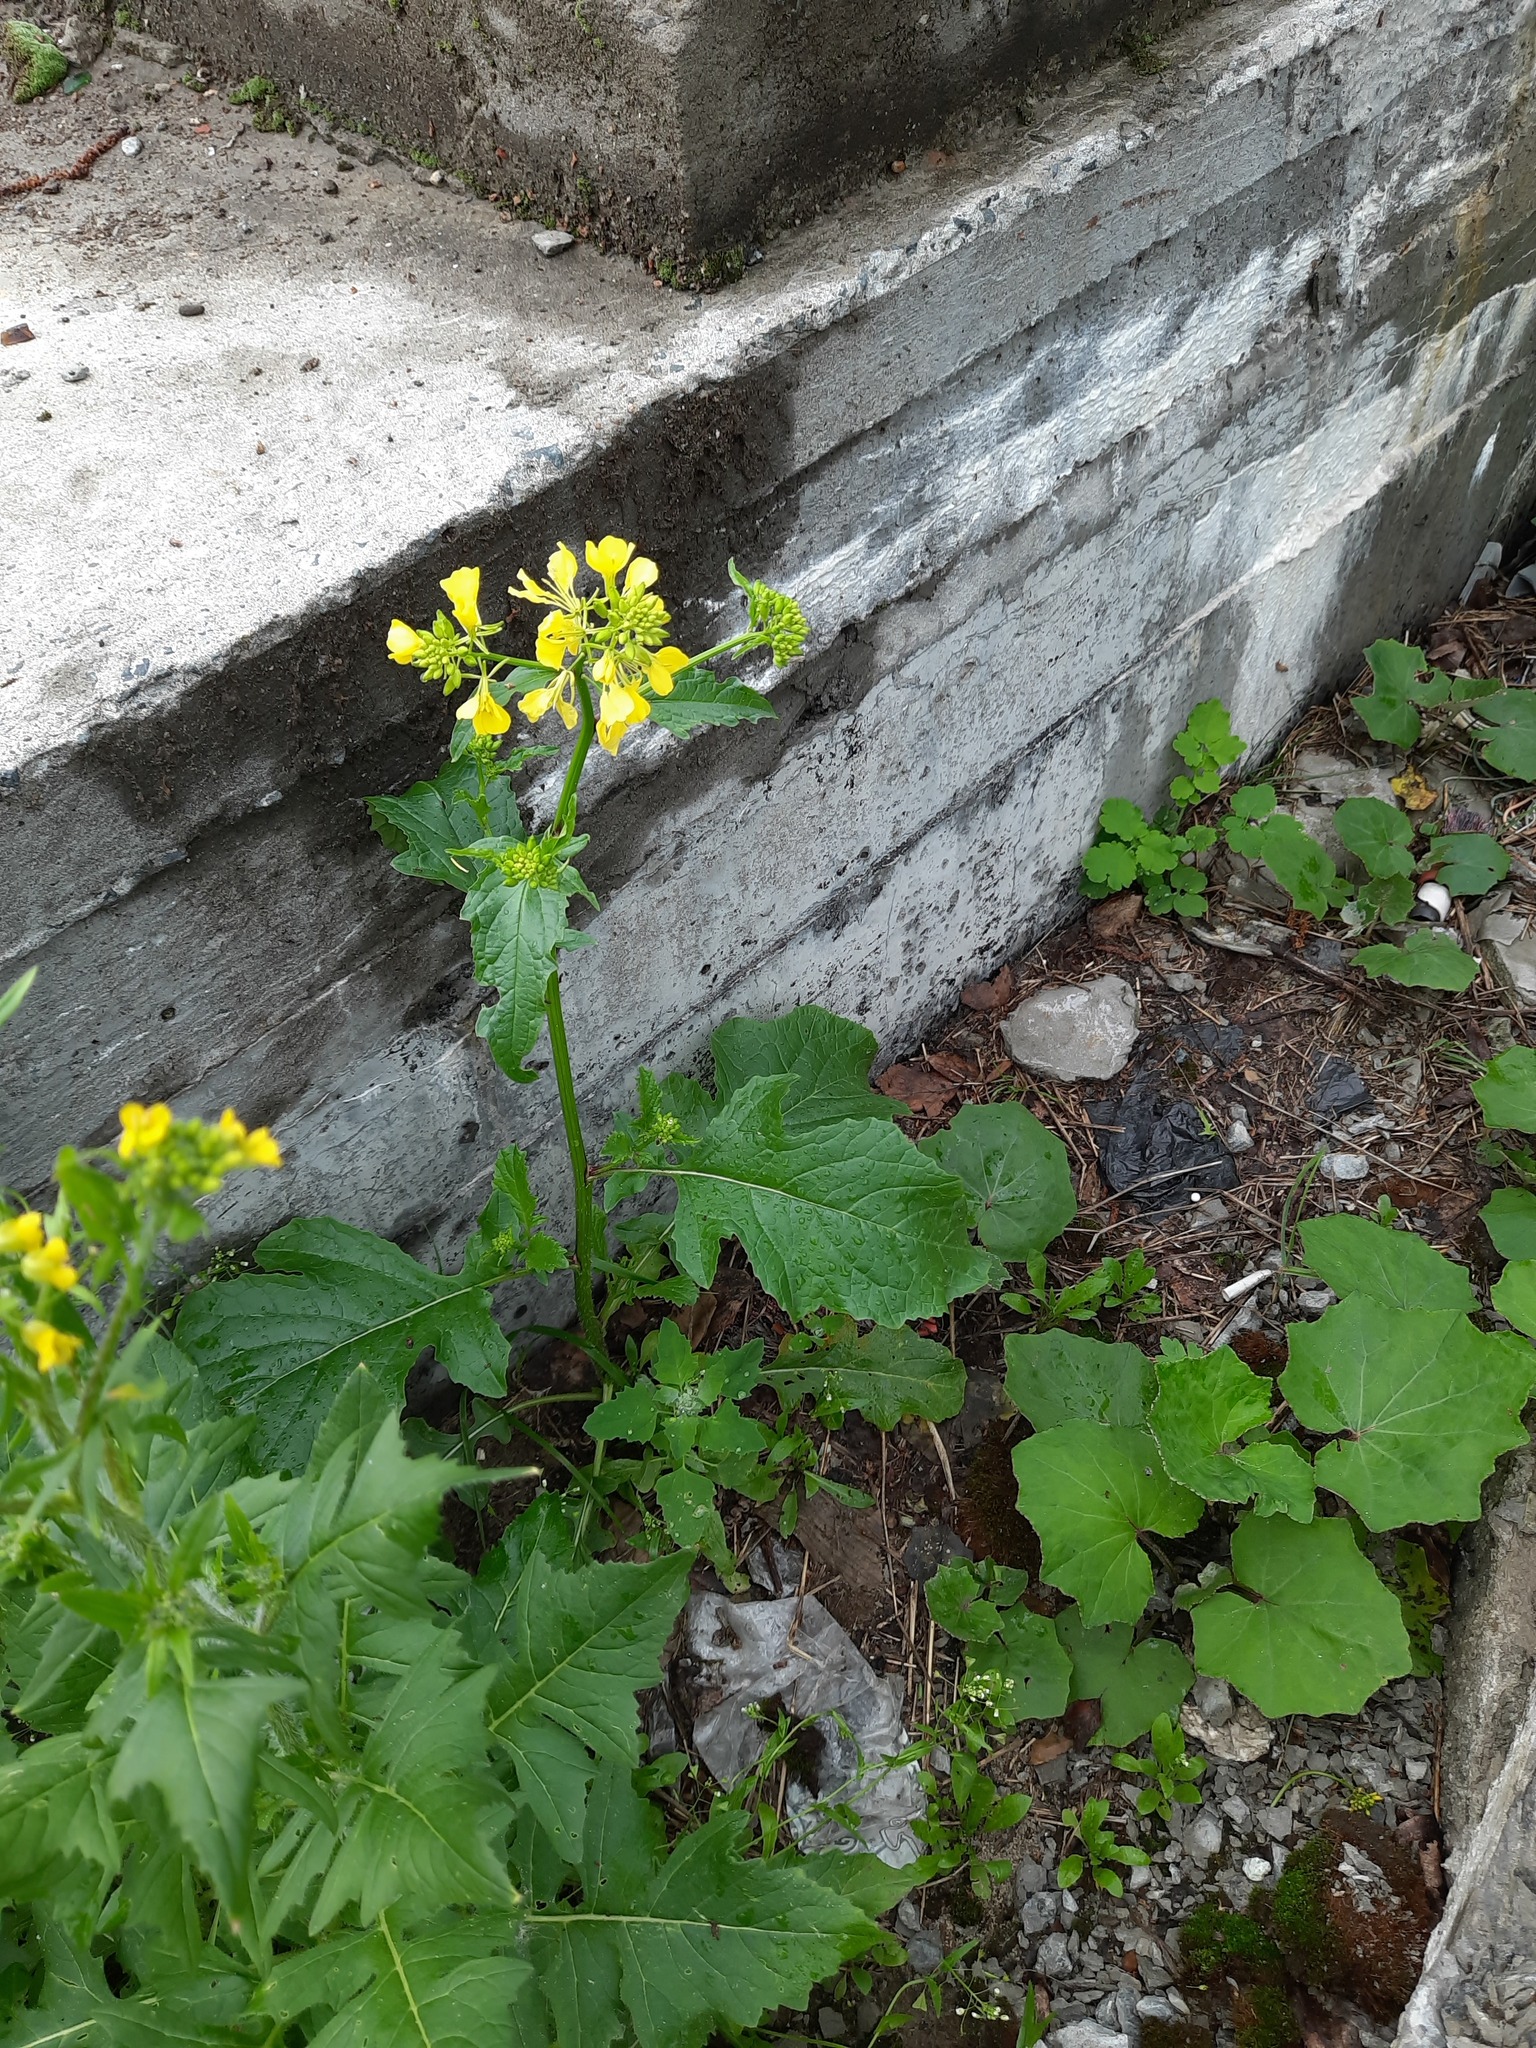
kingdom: Plantae
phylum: Tracheophyta
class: Magnoliopsida
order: Brassicales
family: Brassicaceae
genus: Sisymbrium
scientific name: Sisymbrium loeselii
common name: False london-rocket
